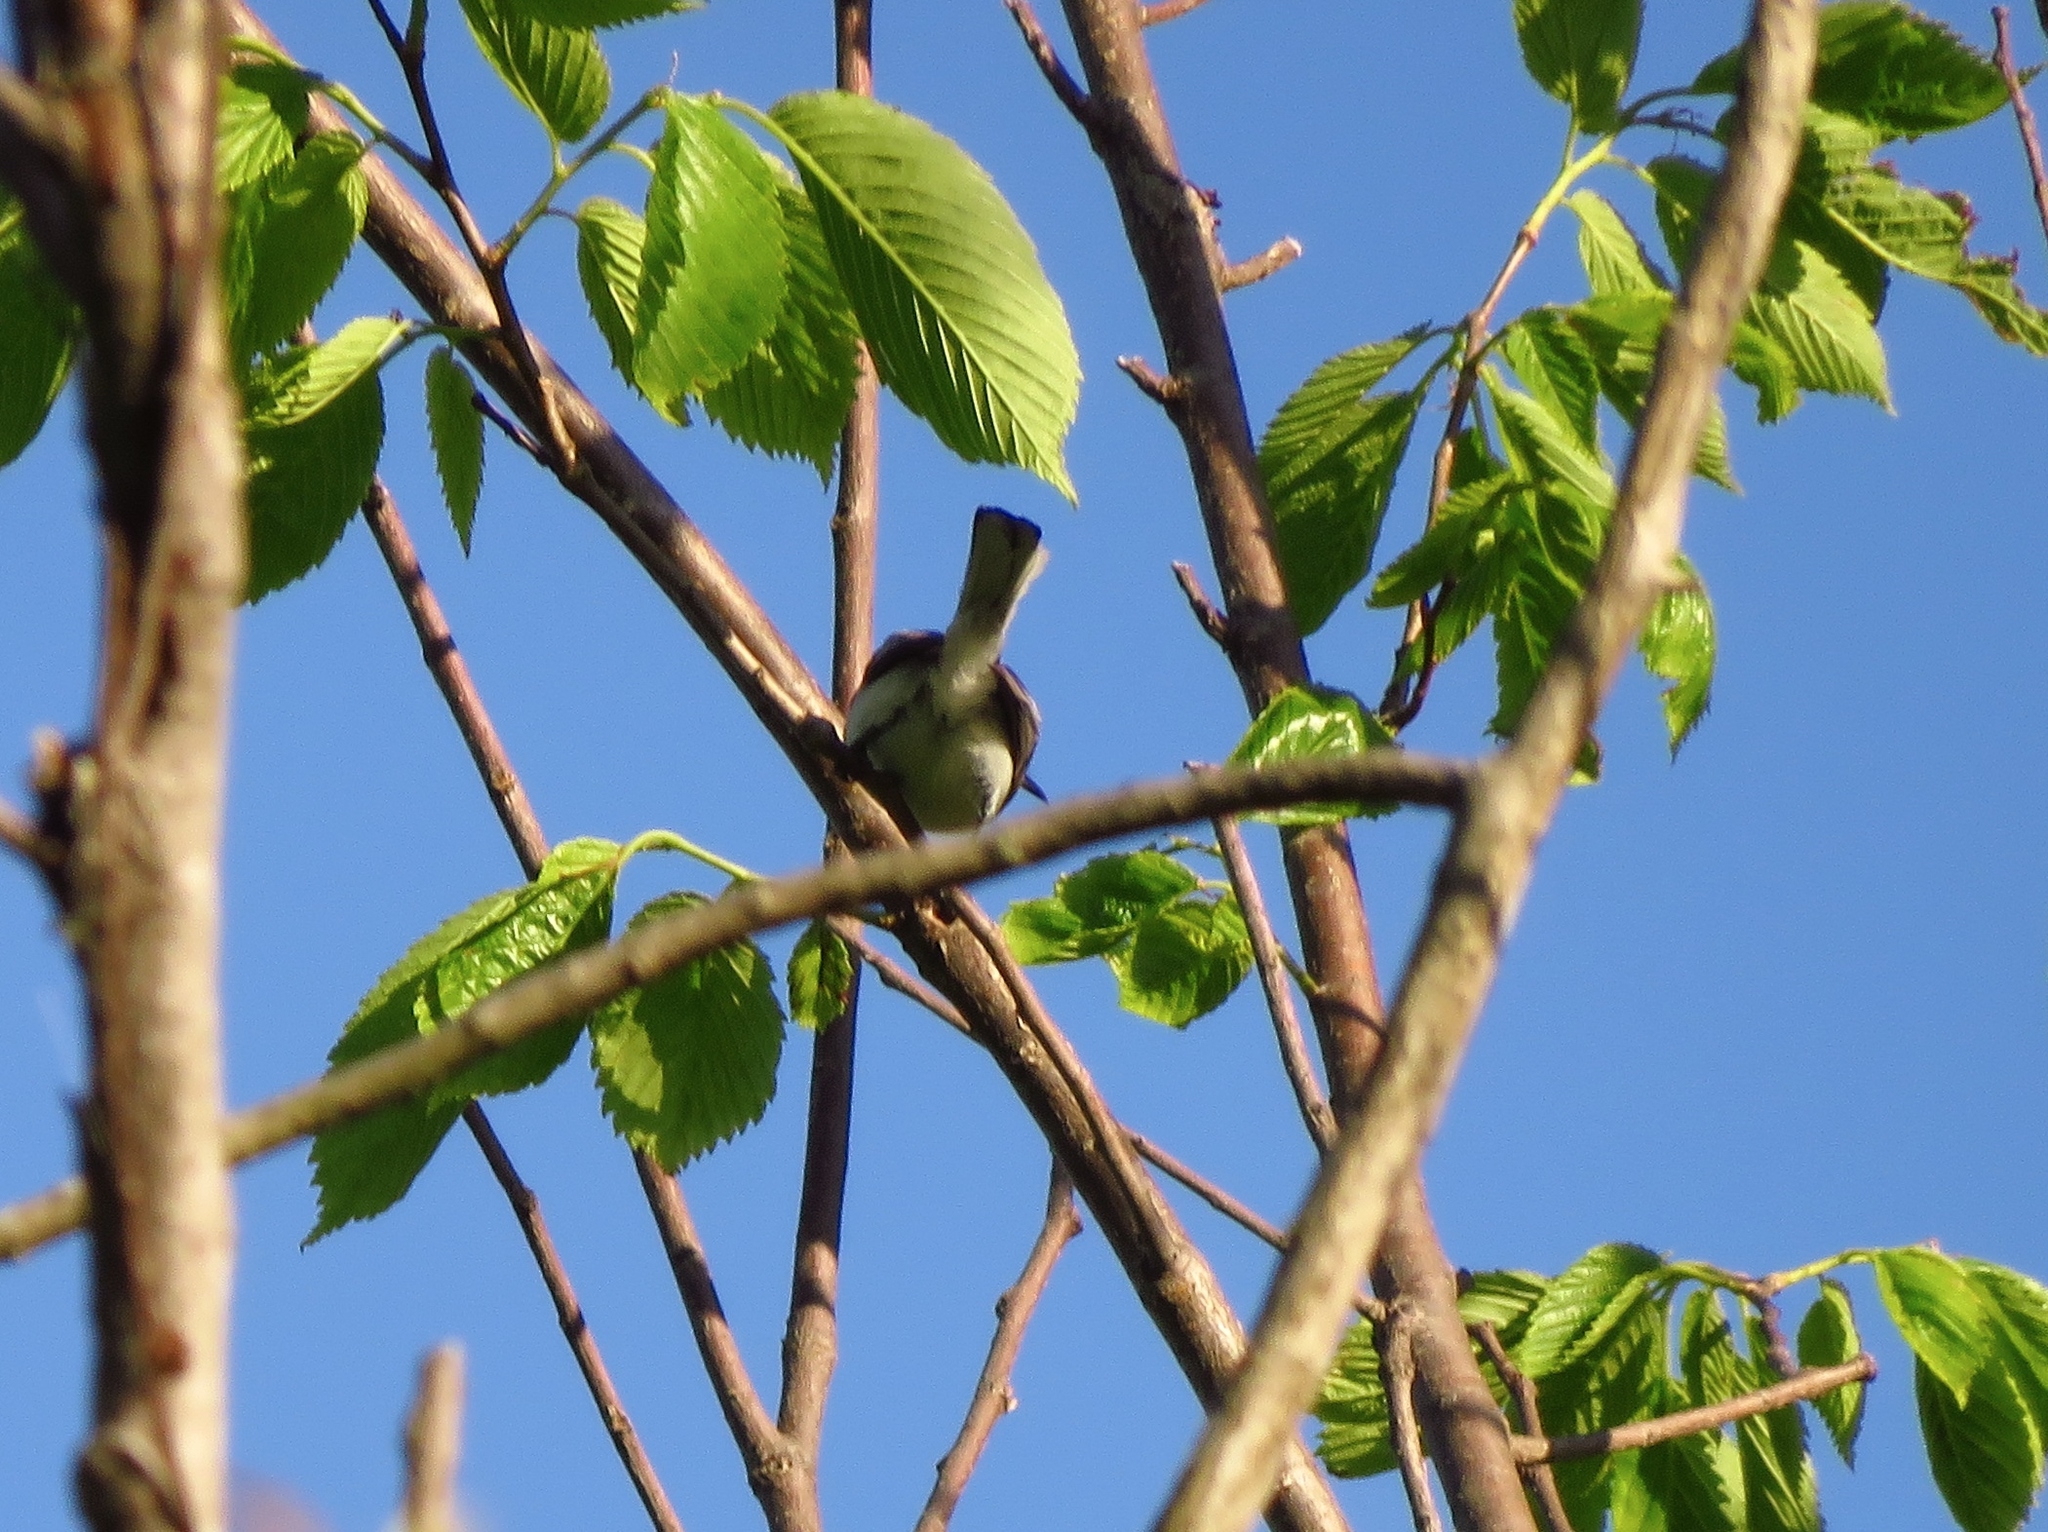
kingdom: Animalia
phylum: Chordata
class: Aves
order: Passeriformes
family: Polioptilidae
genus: Polioptila
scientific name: Polioptila caerulea
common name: Blue-gray gnatcatcher
